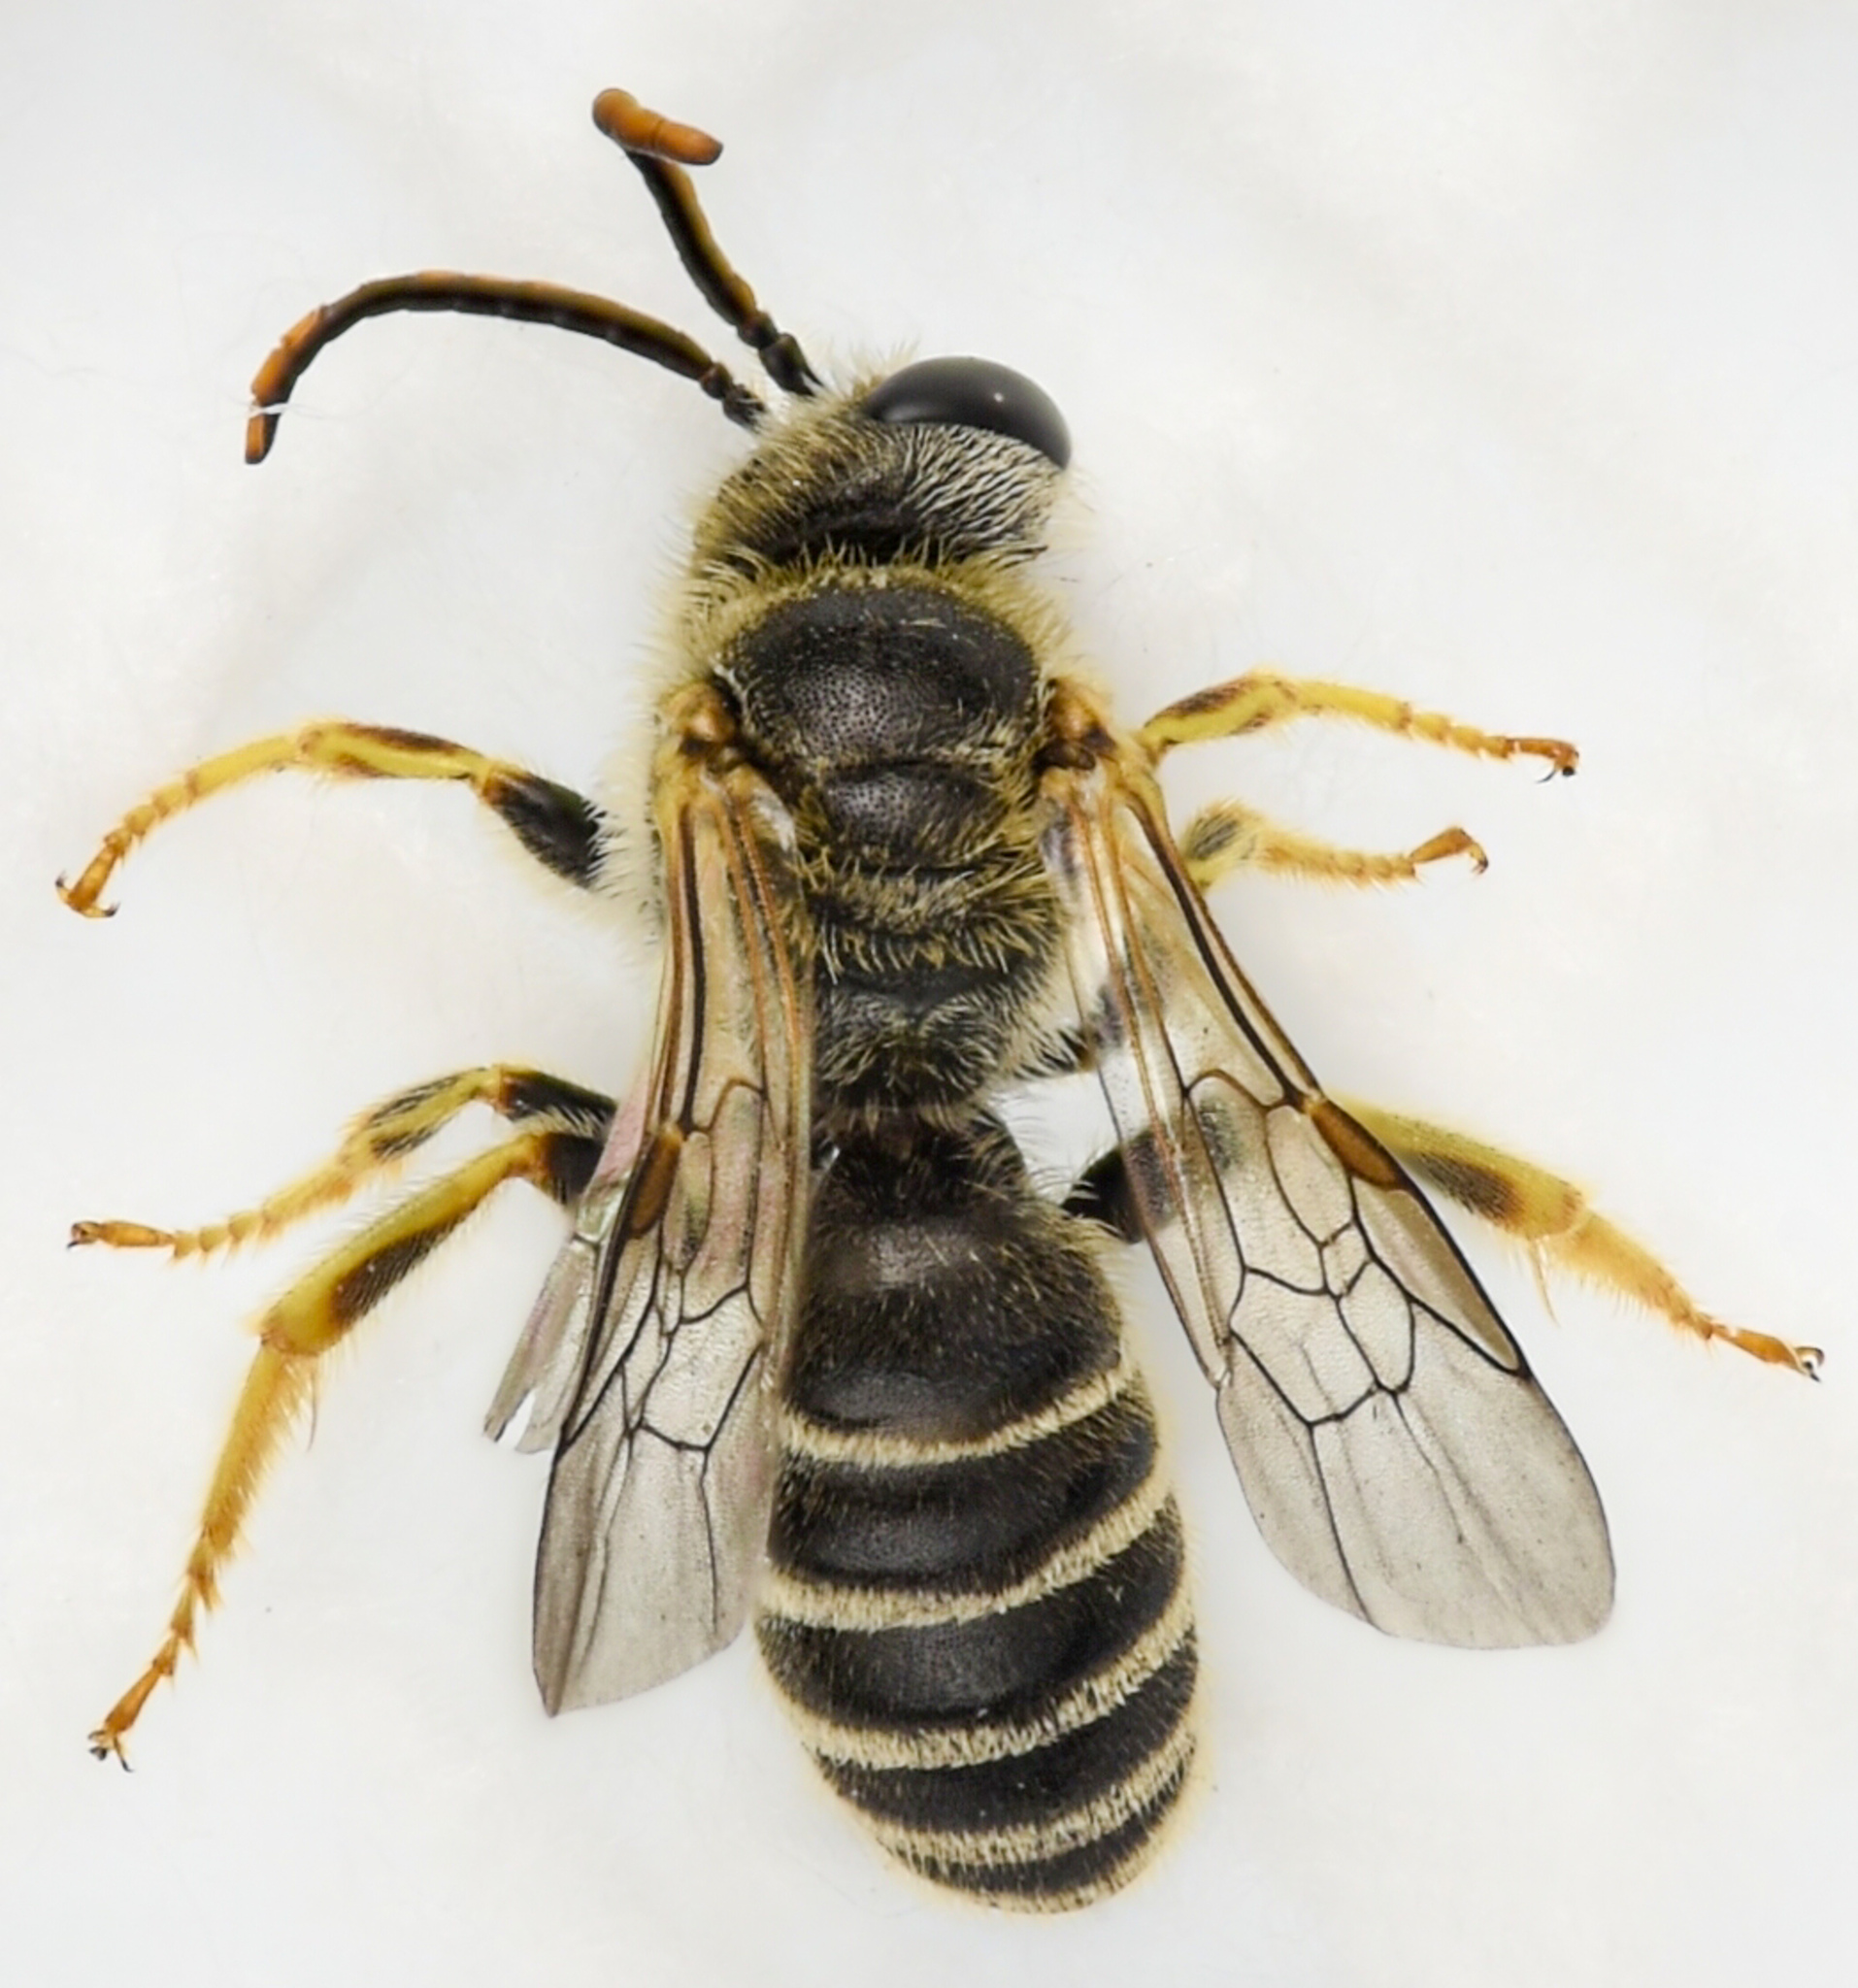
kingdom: Animalia
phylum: Arthropoda
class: Insecta
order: Hymenoptera
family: Halictidae
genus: Halictus
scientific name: Halictus ligatus
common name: Ligated furrow bee
